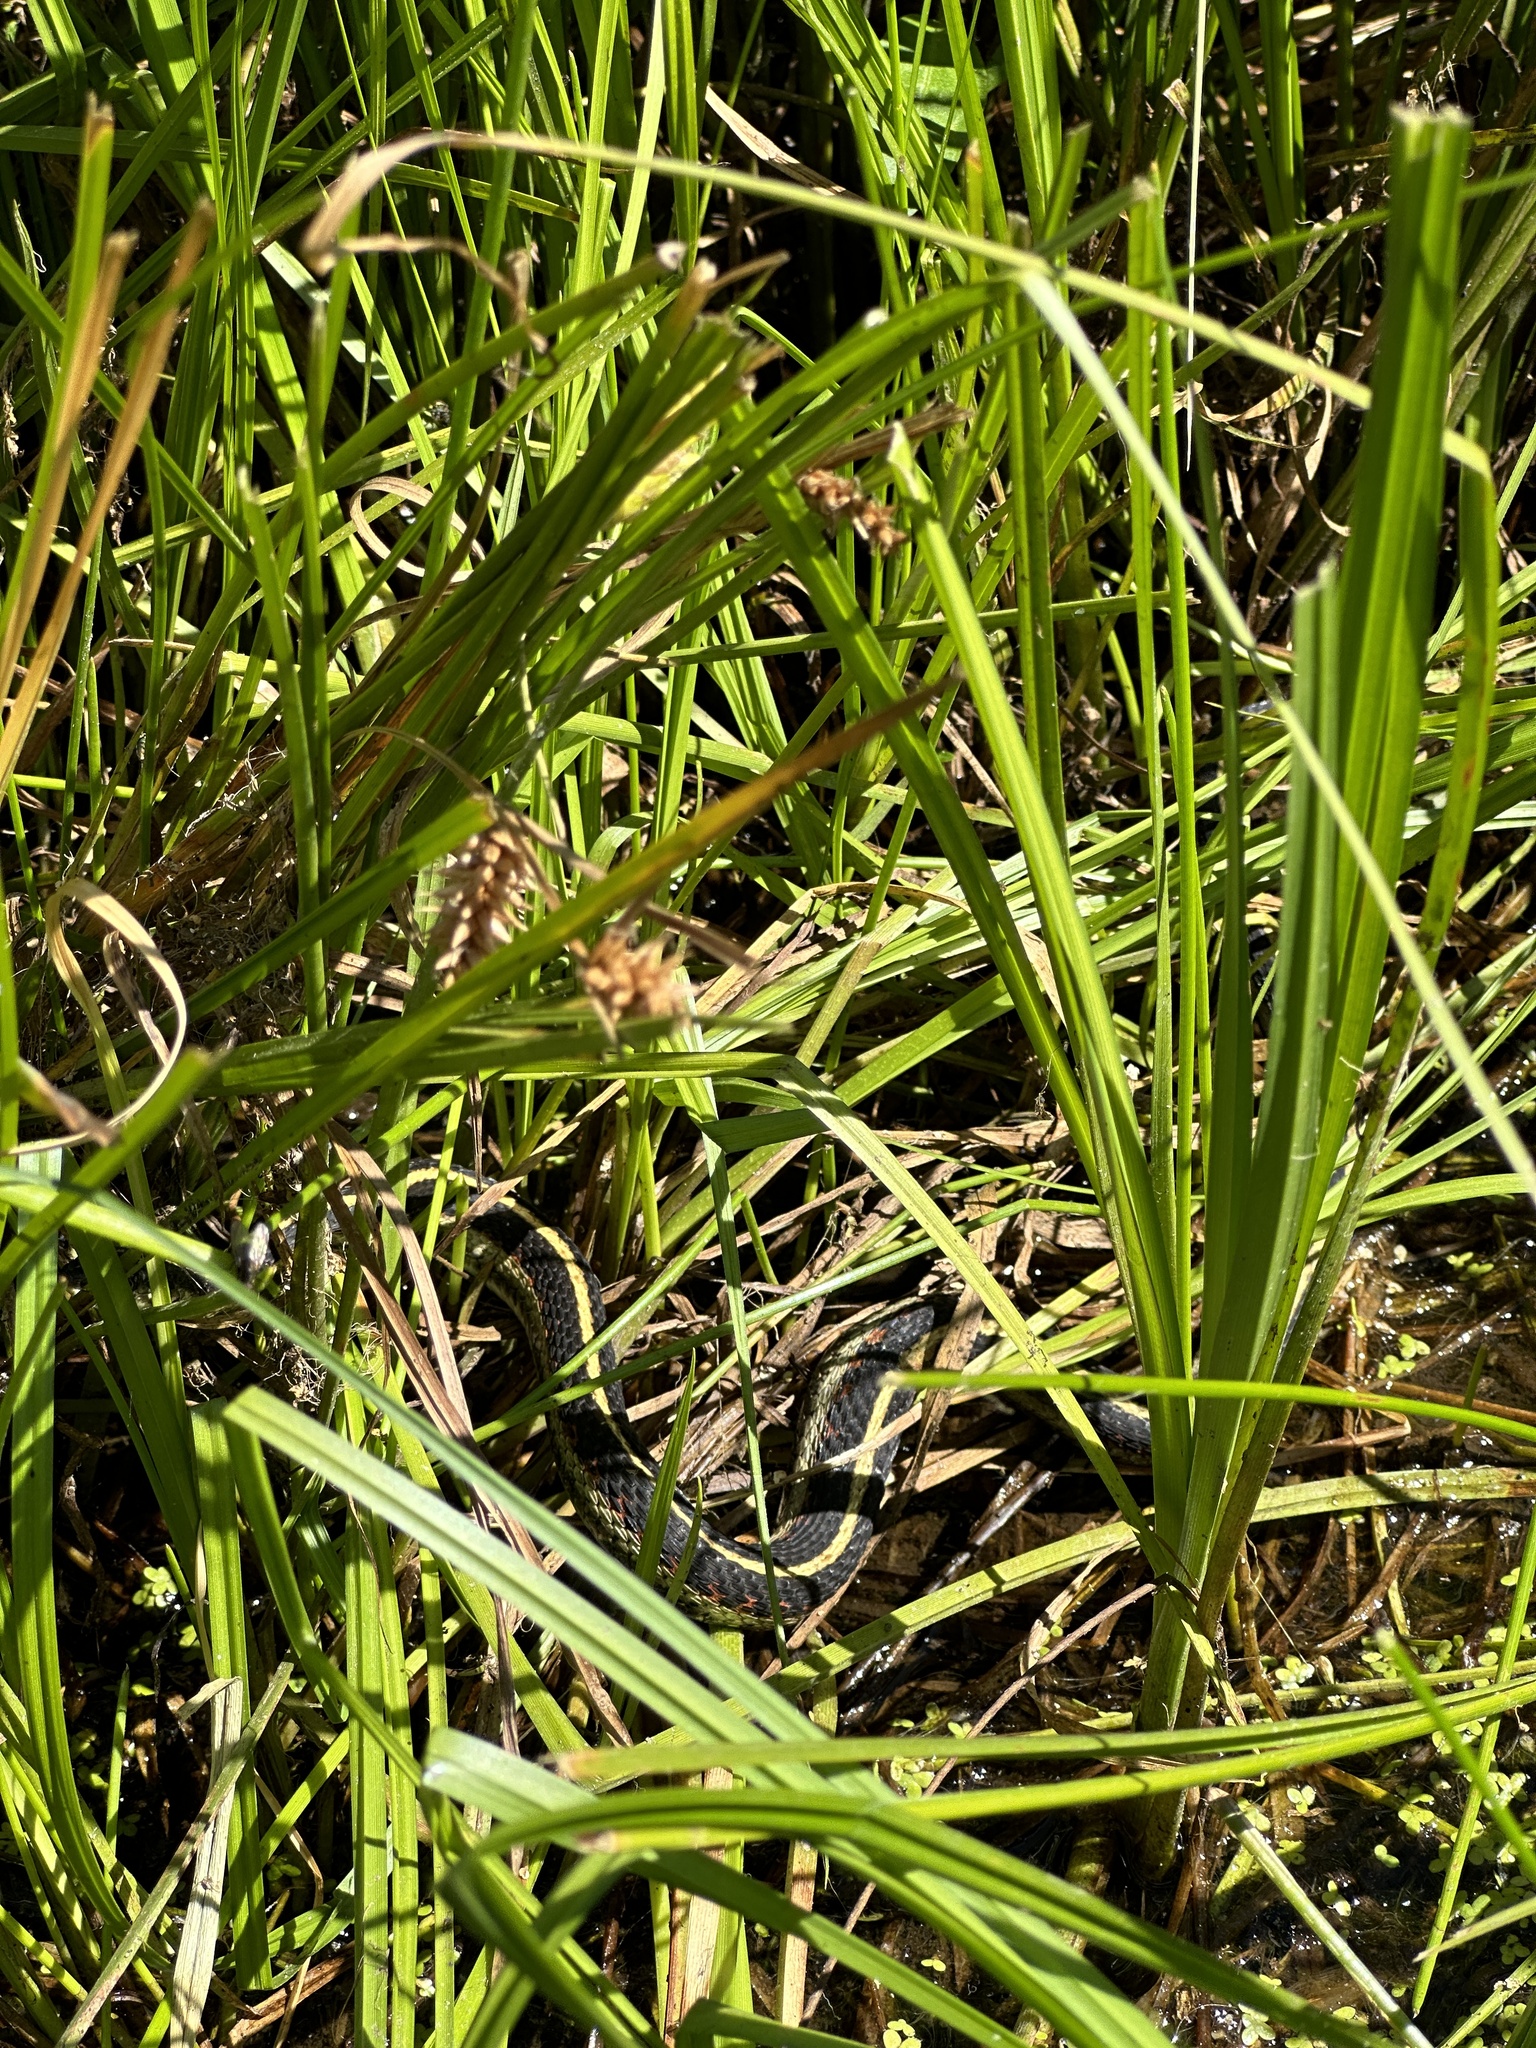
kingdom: Animalia
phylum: Chordata
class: Squamata
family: Colubridae
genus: Thamnophis
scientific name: Thamnophis sirtalis
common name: Common garter snake
